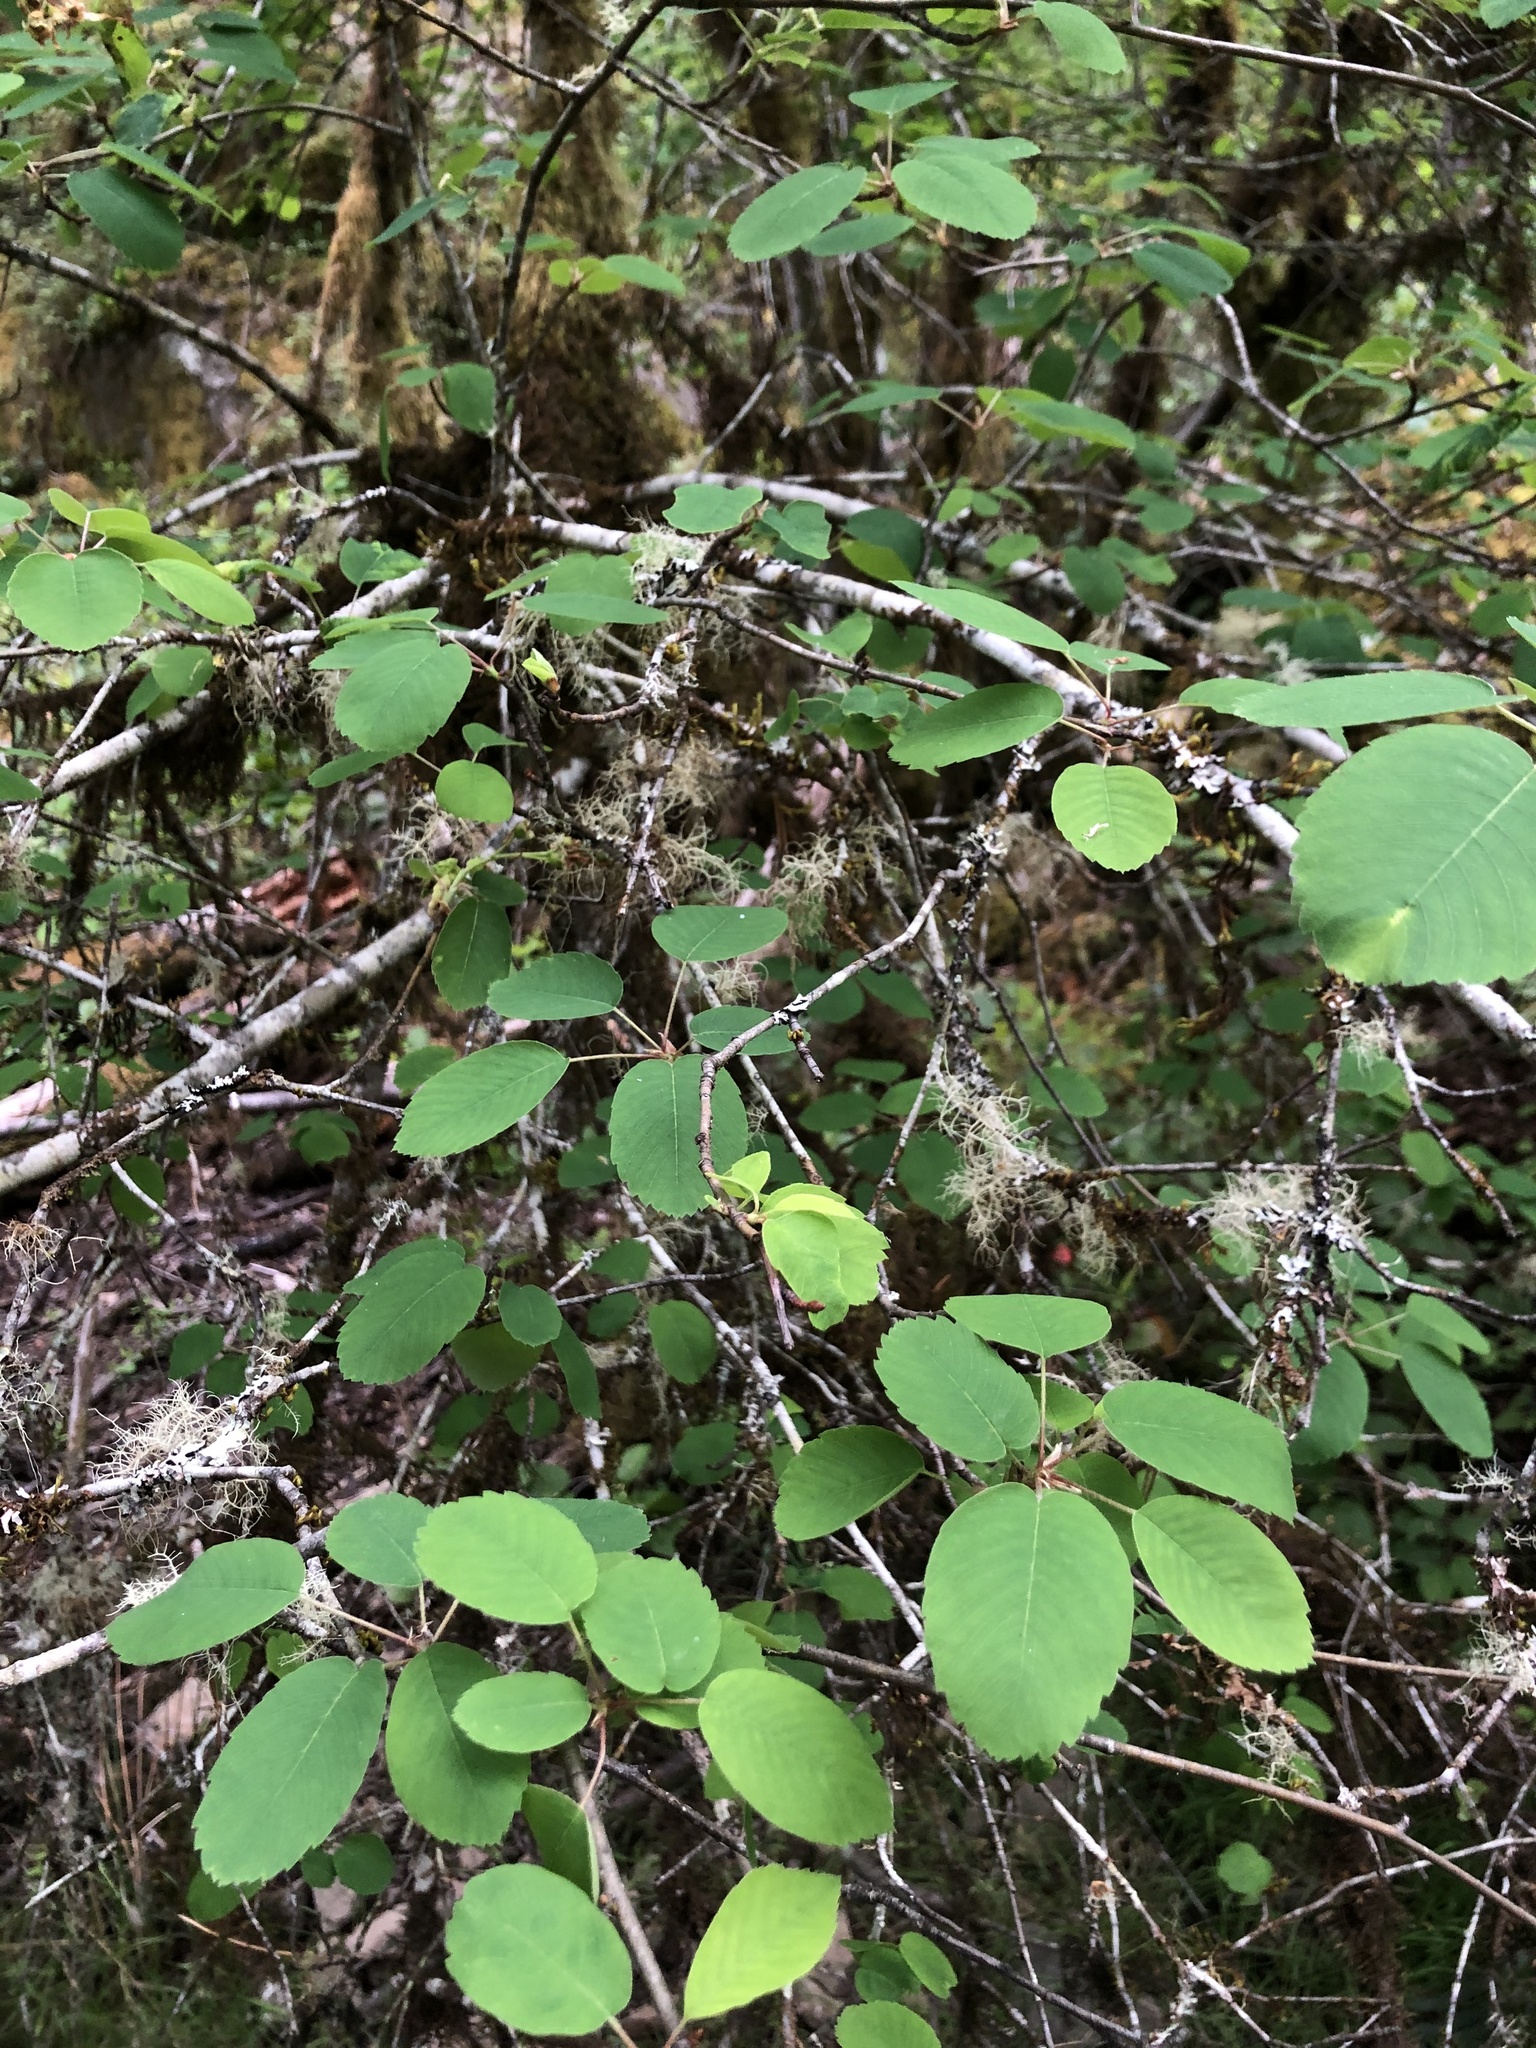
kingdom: Plantae
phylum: Tracheophyta
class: Magnoliopsida
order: Rosales
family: Rosaceae
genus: Amelanchier
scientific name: Amelanchier alnifolia
